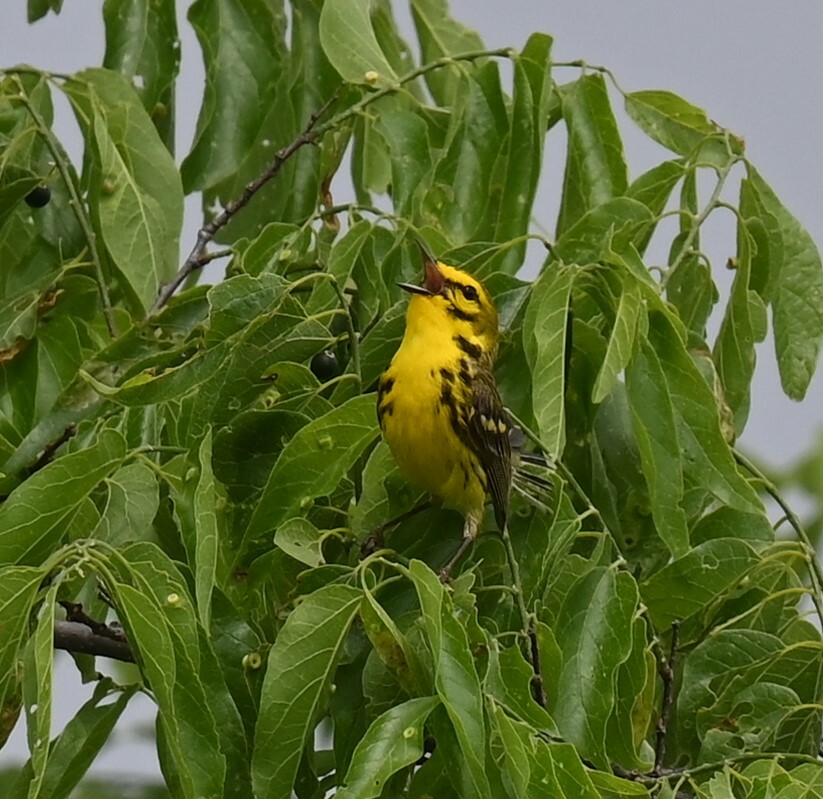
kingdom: Animalia
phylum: Chordata
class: Aves
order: Passeriformes
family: Parulidae
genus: Setophaga
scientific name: Setophaga discolor
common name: Prairie warbler
